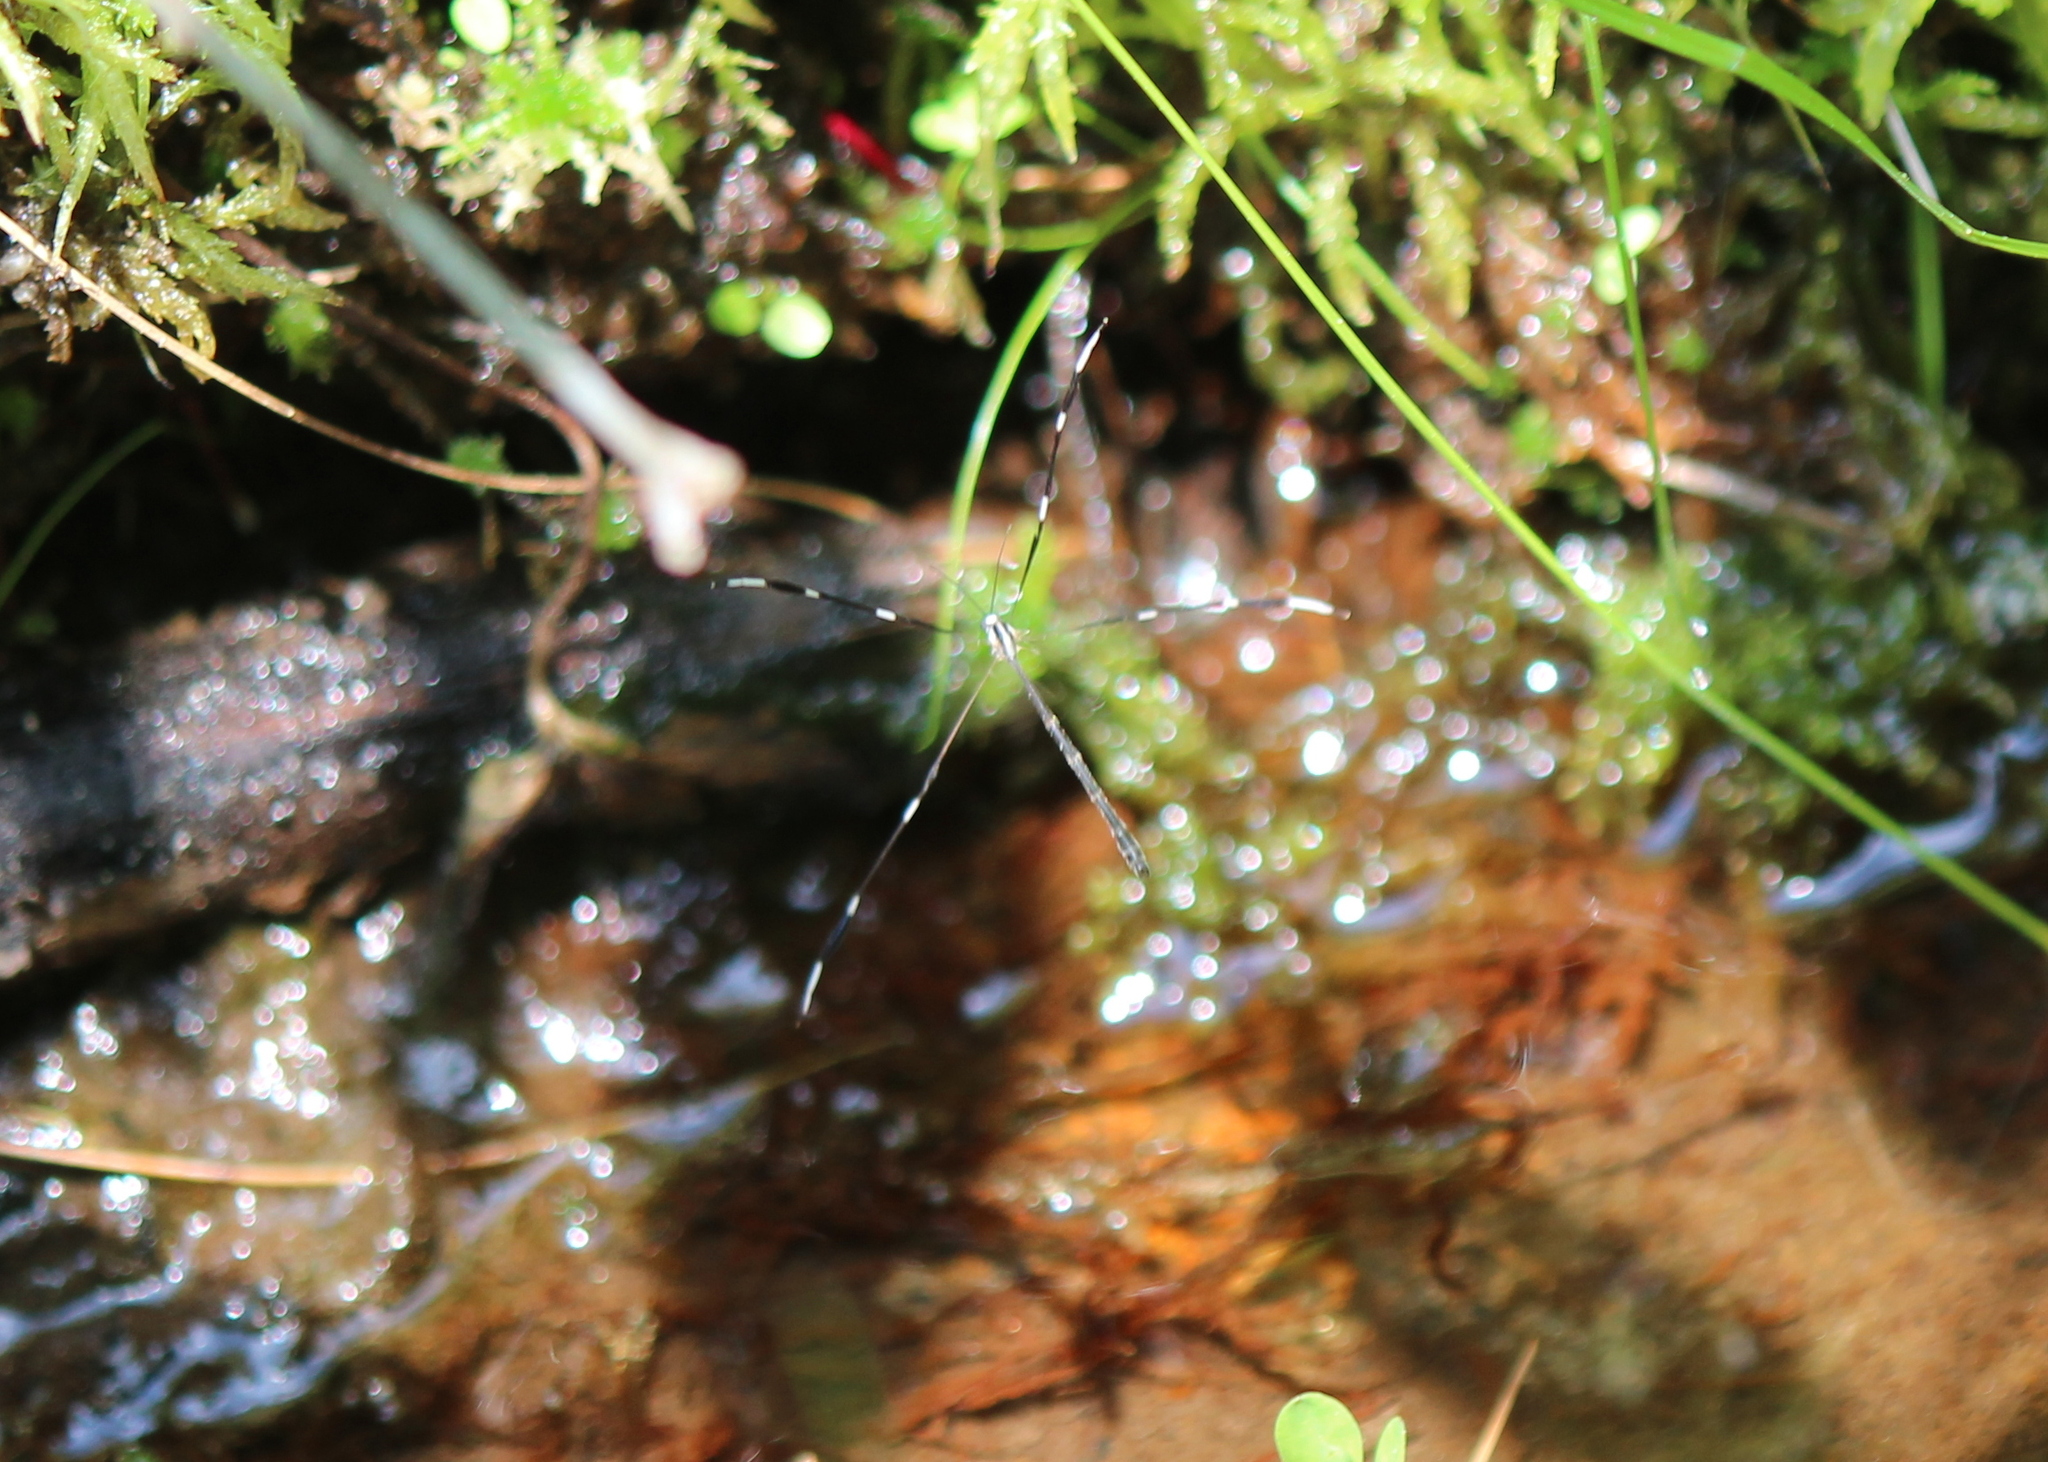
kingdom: Animalia
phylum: Arthropoda
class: Insecta
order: Diptera
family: Ptychopteridae
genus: Bittacomorpha
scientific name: Bittacomorpha clavipes
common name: Eastern phantom crane fly
